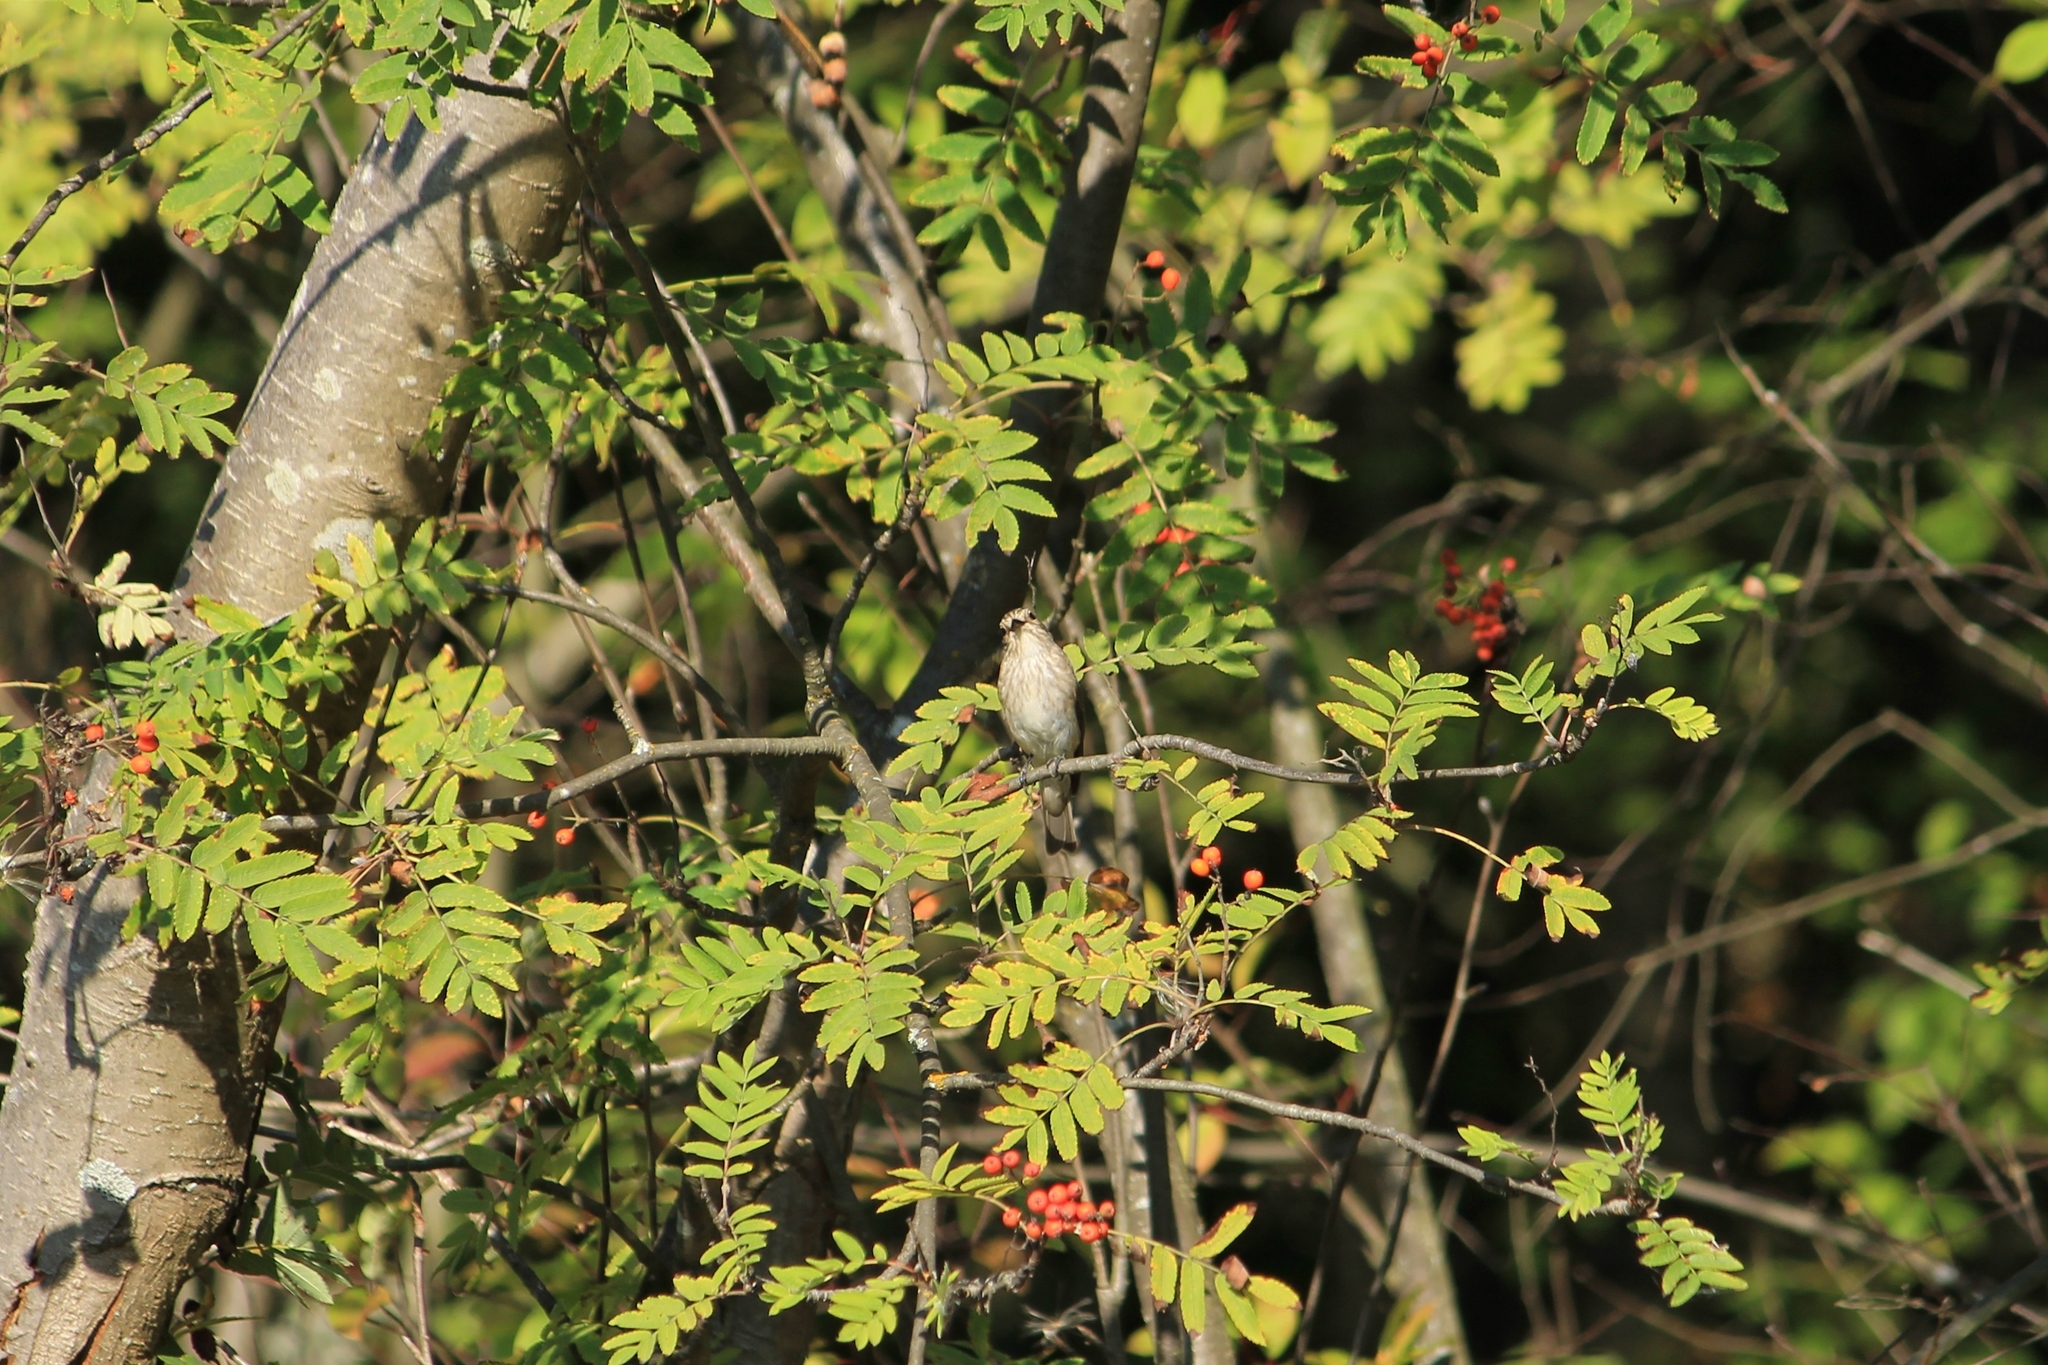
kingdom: Animalia
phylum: Chordata
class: Aves
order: Passeriformes
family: Muscicapidae
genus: Muscicapa
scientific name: Muscicapa striata
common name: Spotted flycatcher
